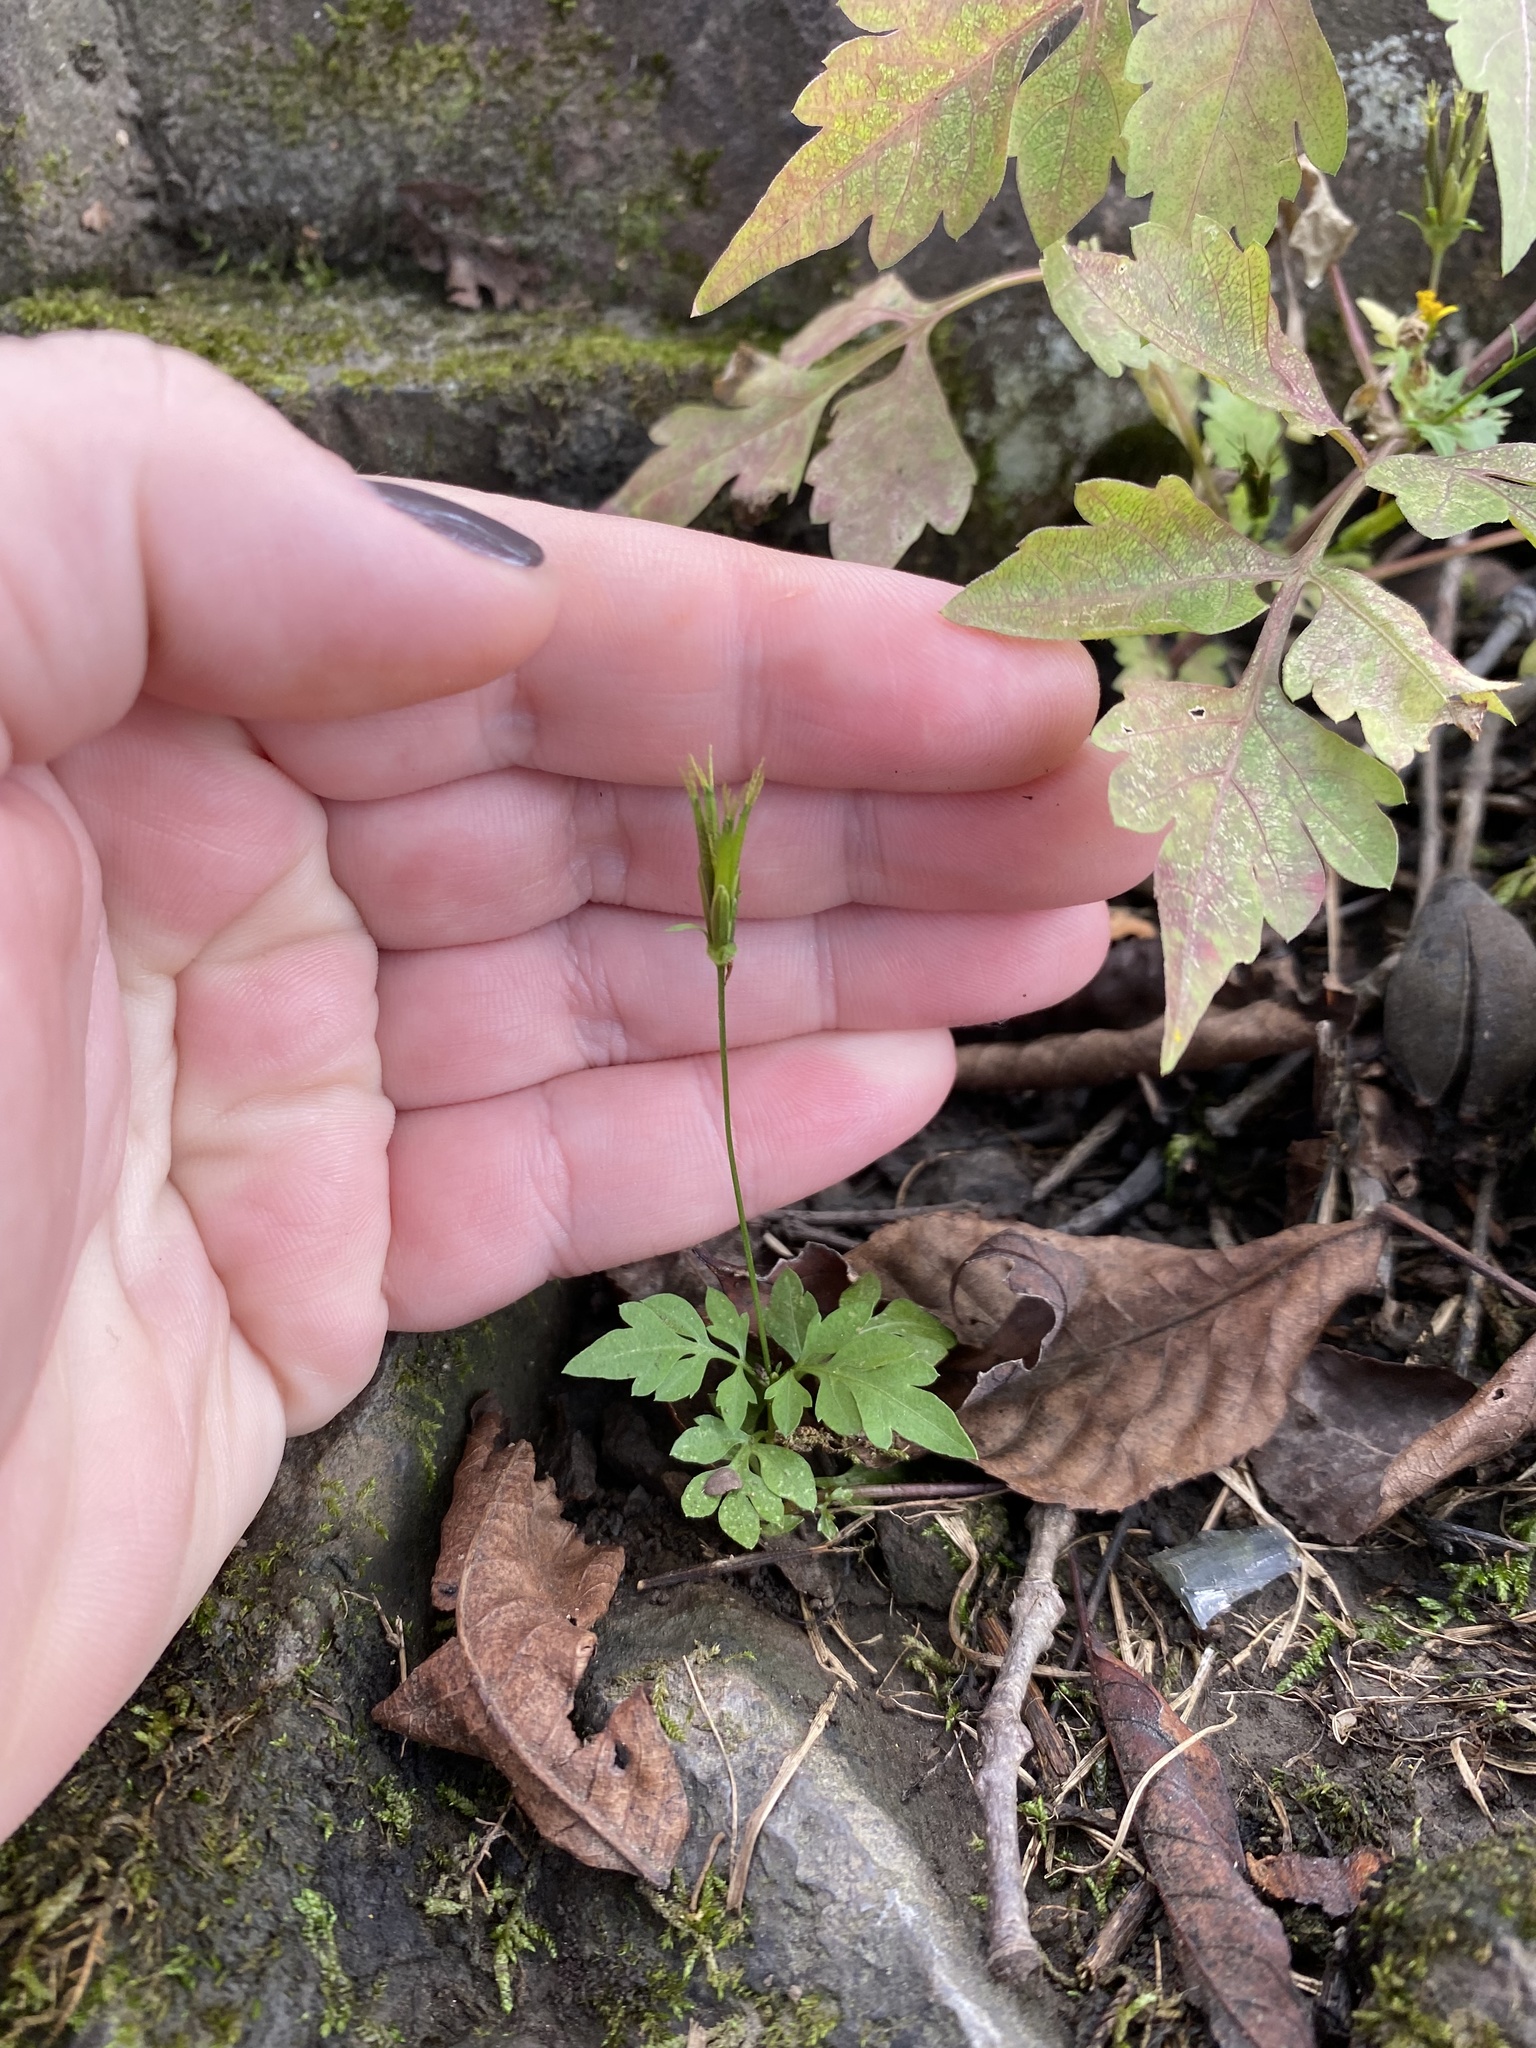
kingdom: Plantae
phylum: Tracheophyta
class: Magnoliopsida
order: Asterales
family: Asteraceae
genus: Bidens
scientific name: Bidens bipinnata
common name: Spanish-needles
